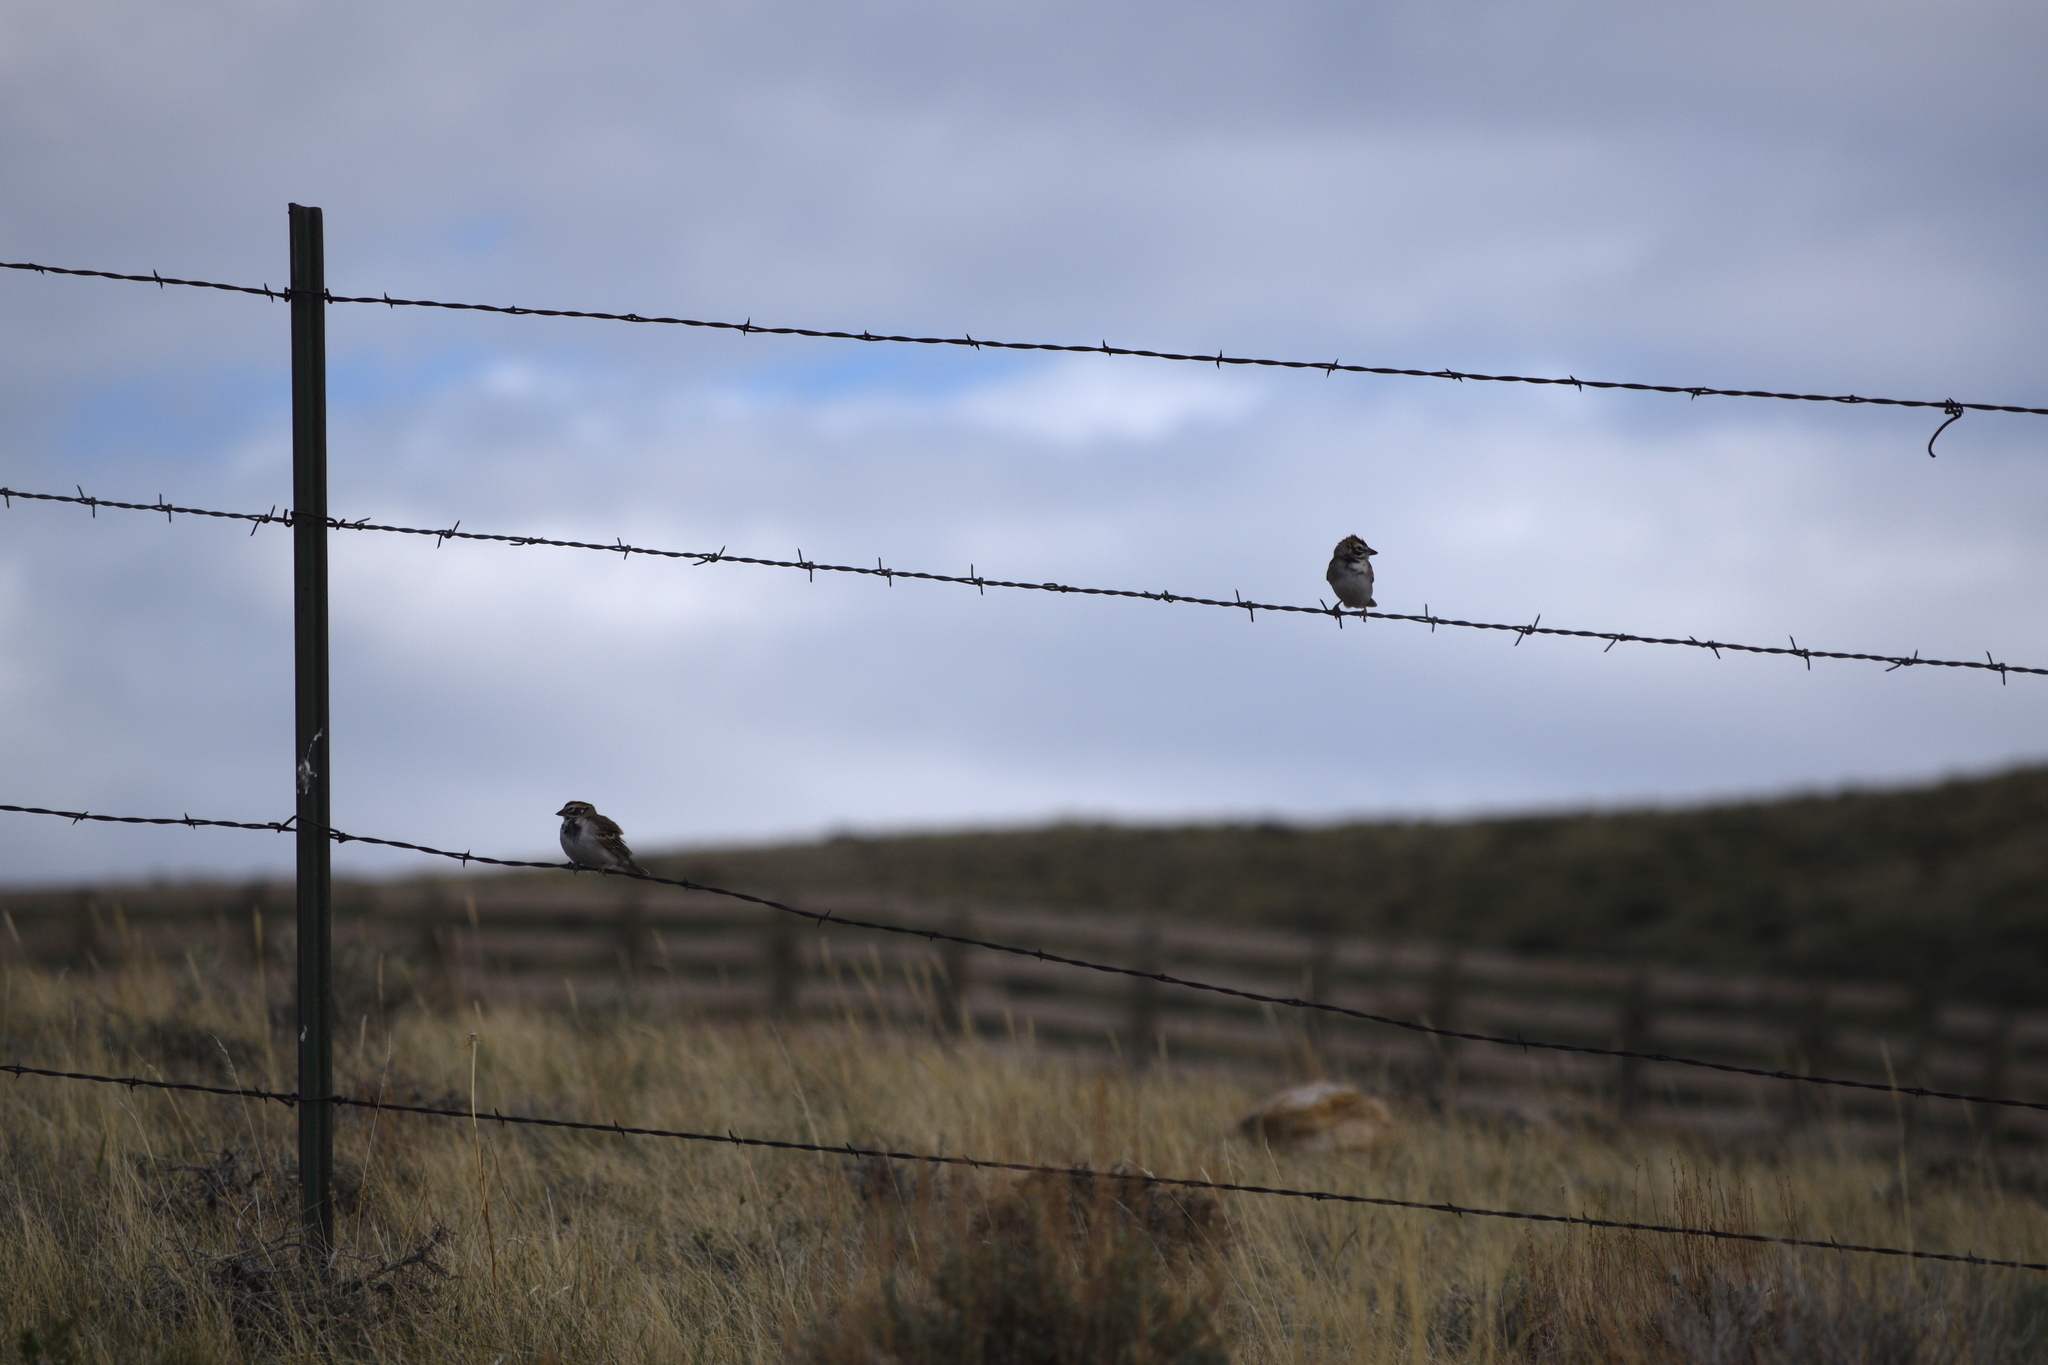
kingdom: Animalia
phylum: Chordata
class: Aves
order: Passeriformes
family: Passerellidae
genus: Chondestes
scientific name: Chondestes grammacus
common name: Lark sparrow
